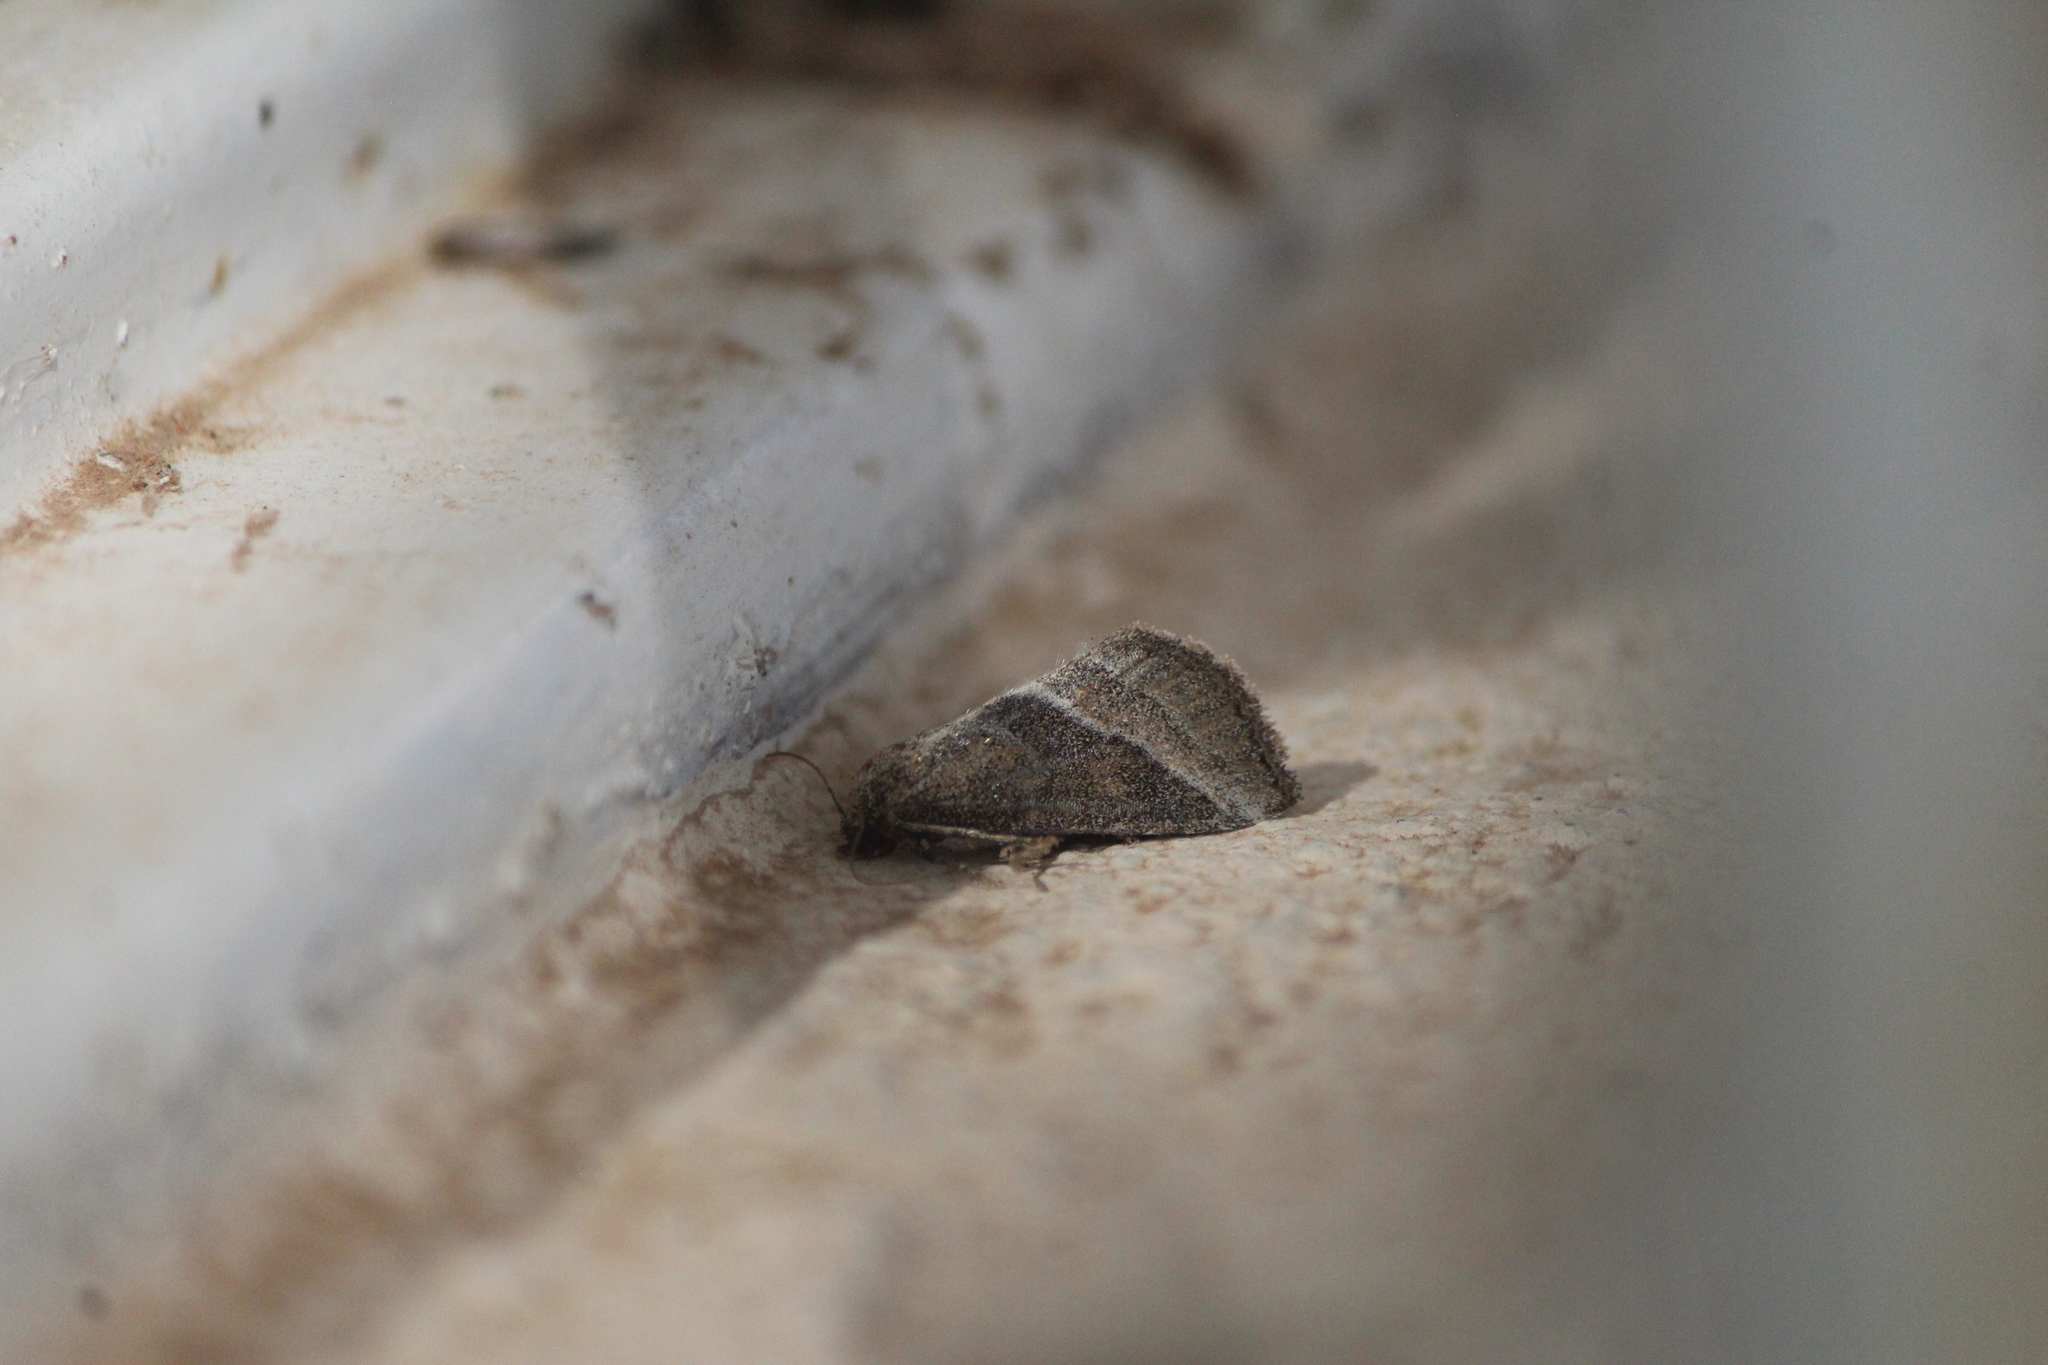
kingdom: Animalia
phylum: Arthropoda
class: Insecta
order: Lepidoptera
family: Noctuidae
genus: Ogdoconta
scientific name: Ogdoconta musculus
